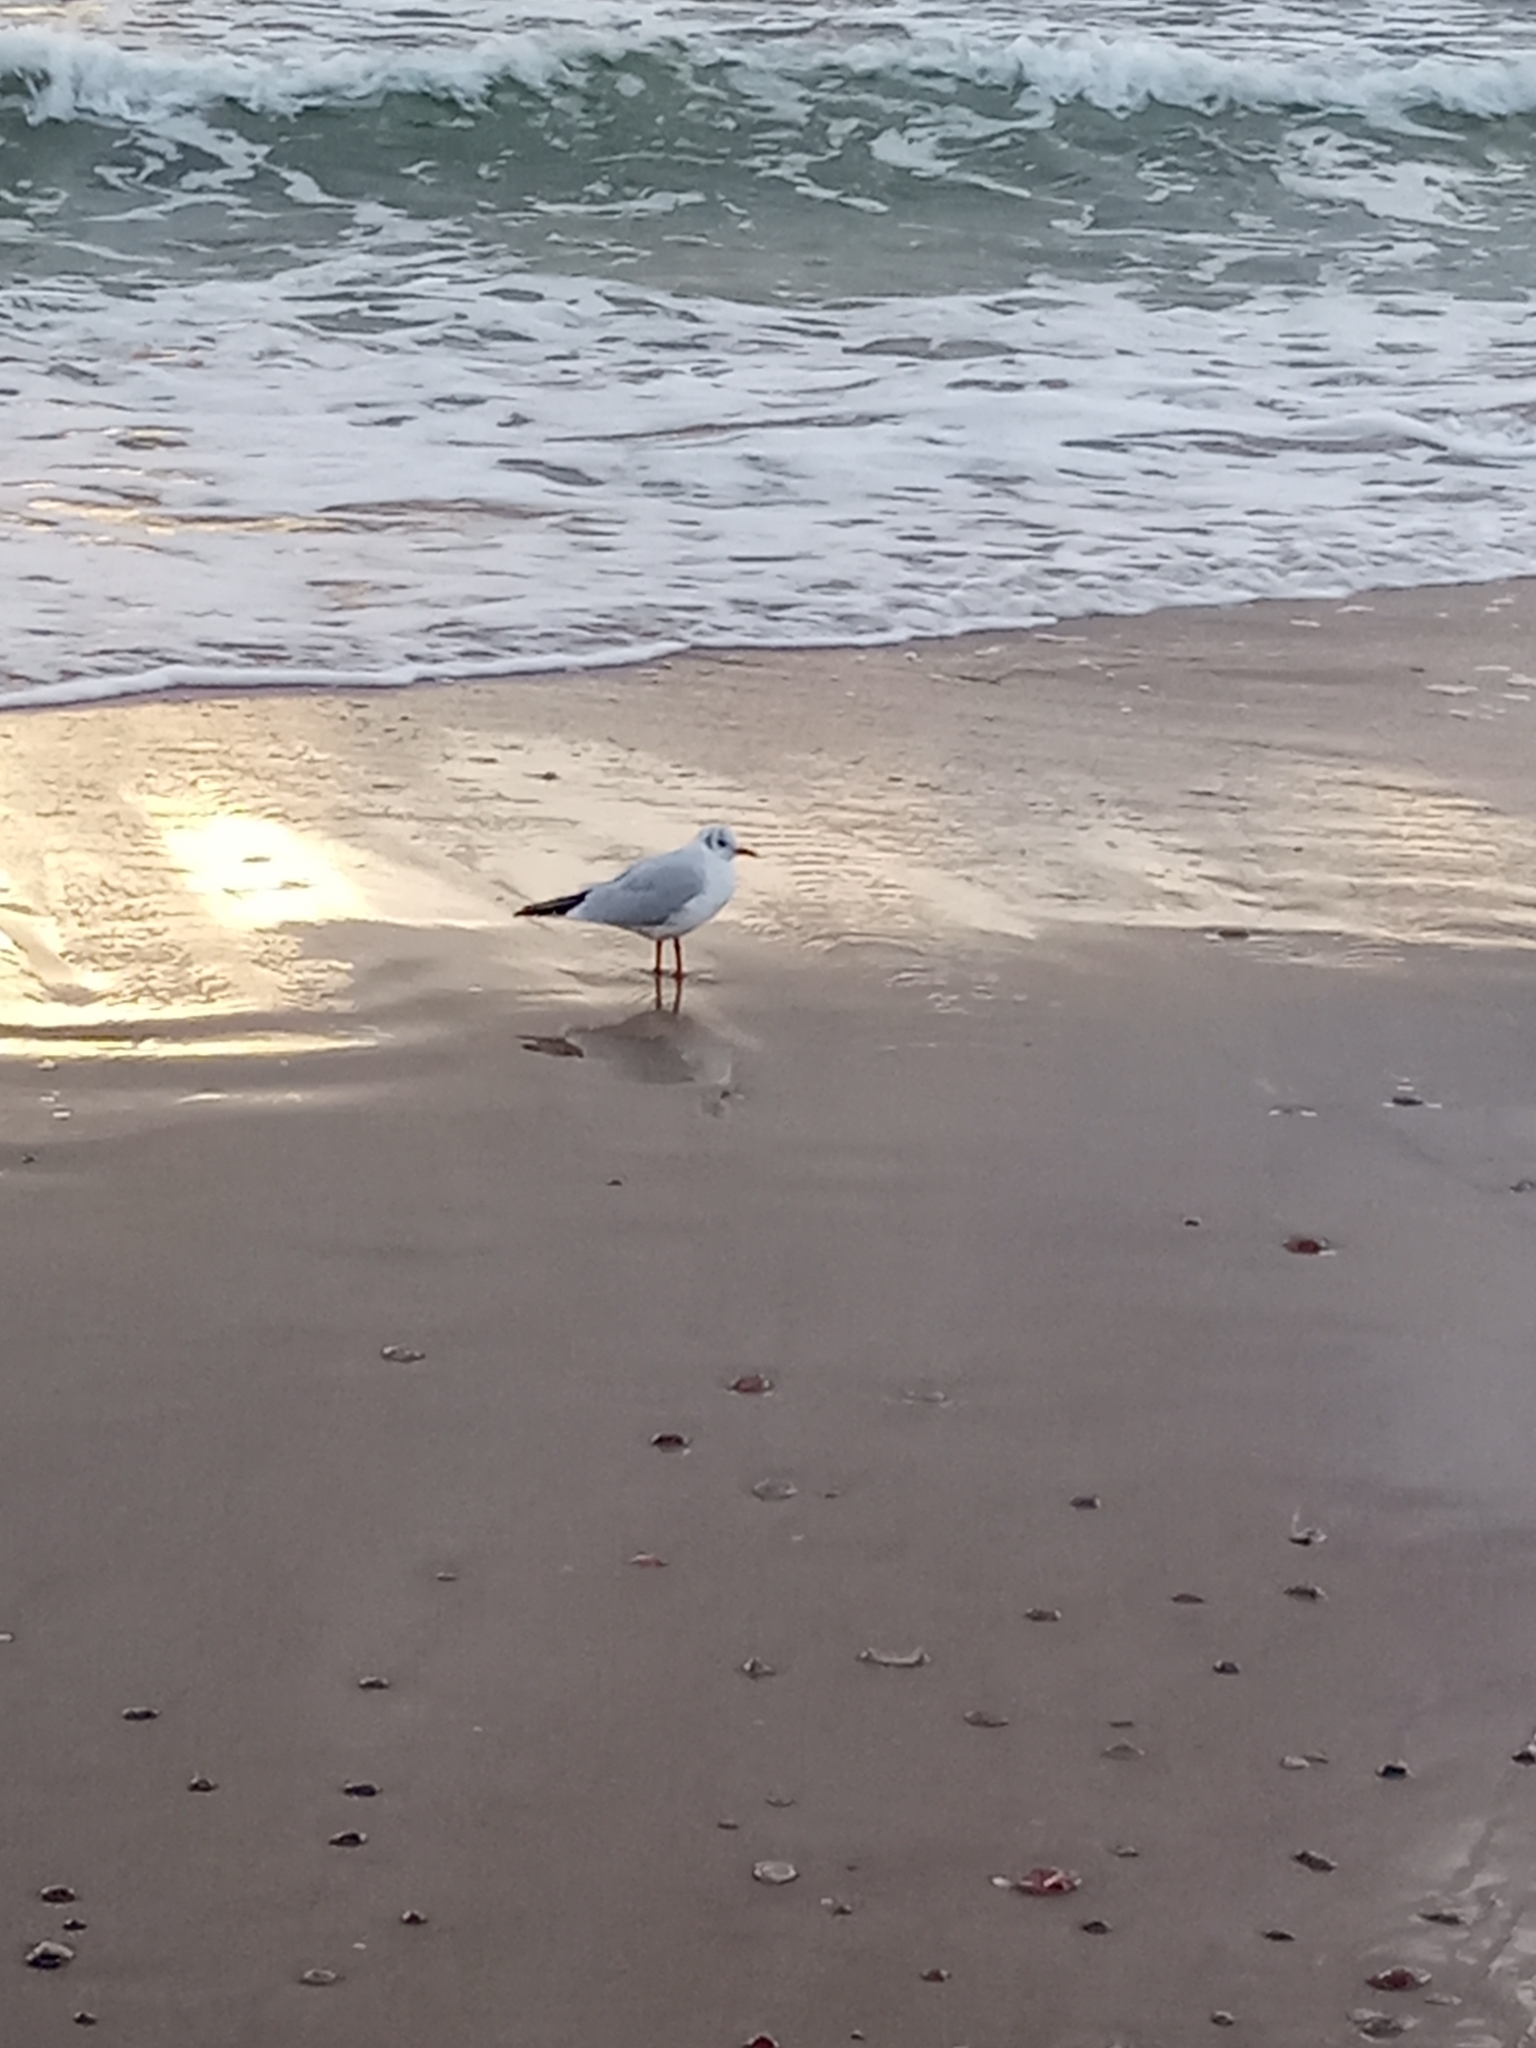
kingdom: Animalia
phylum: Chordata
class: Aves
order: Charadriiformes
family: Laridae
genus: Chroicocephalus
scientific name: Chroicocephalus ridibundus
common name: Black-headed gull
